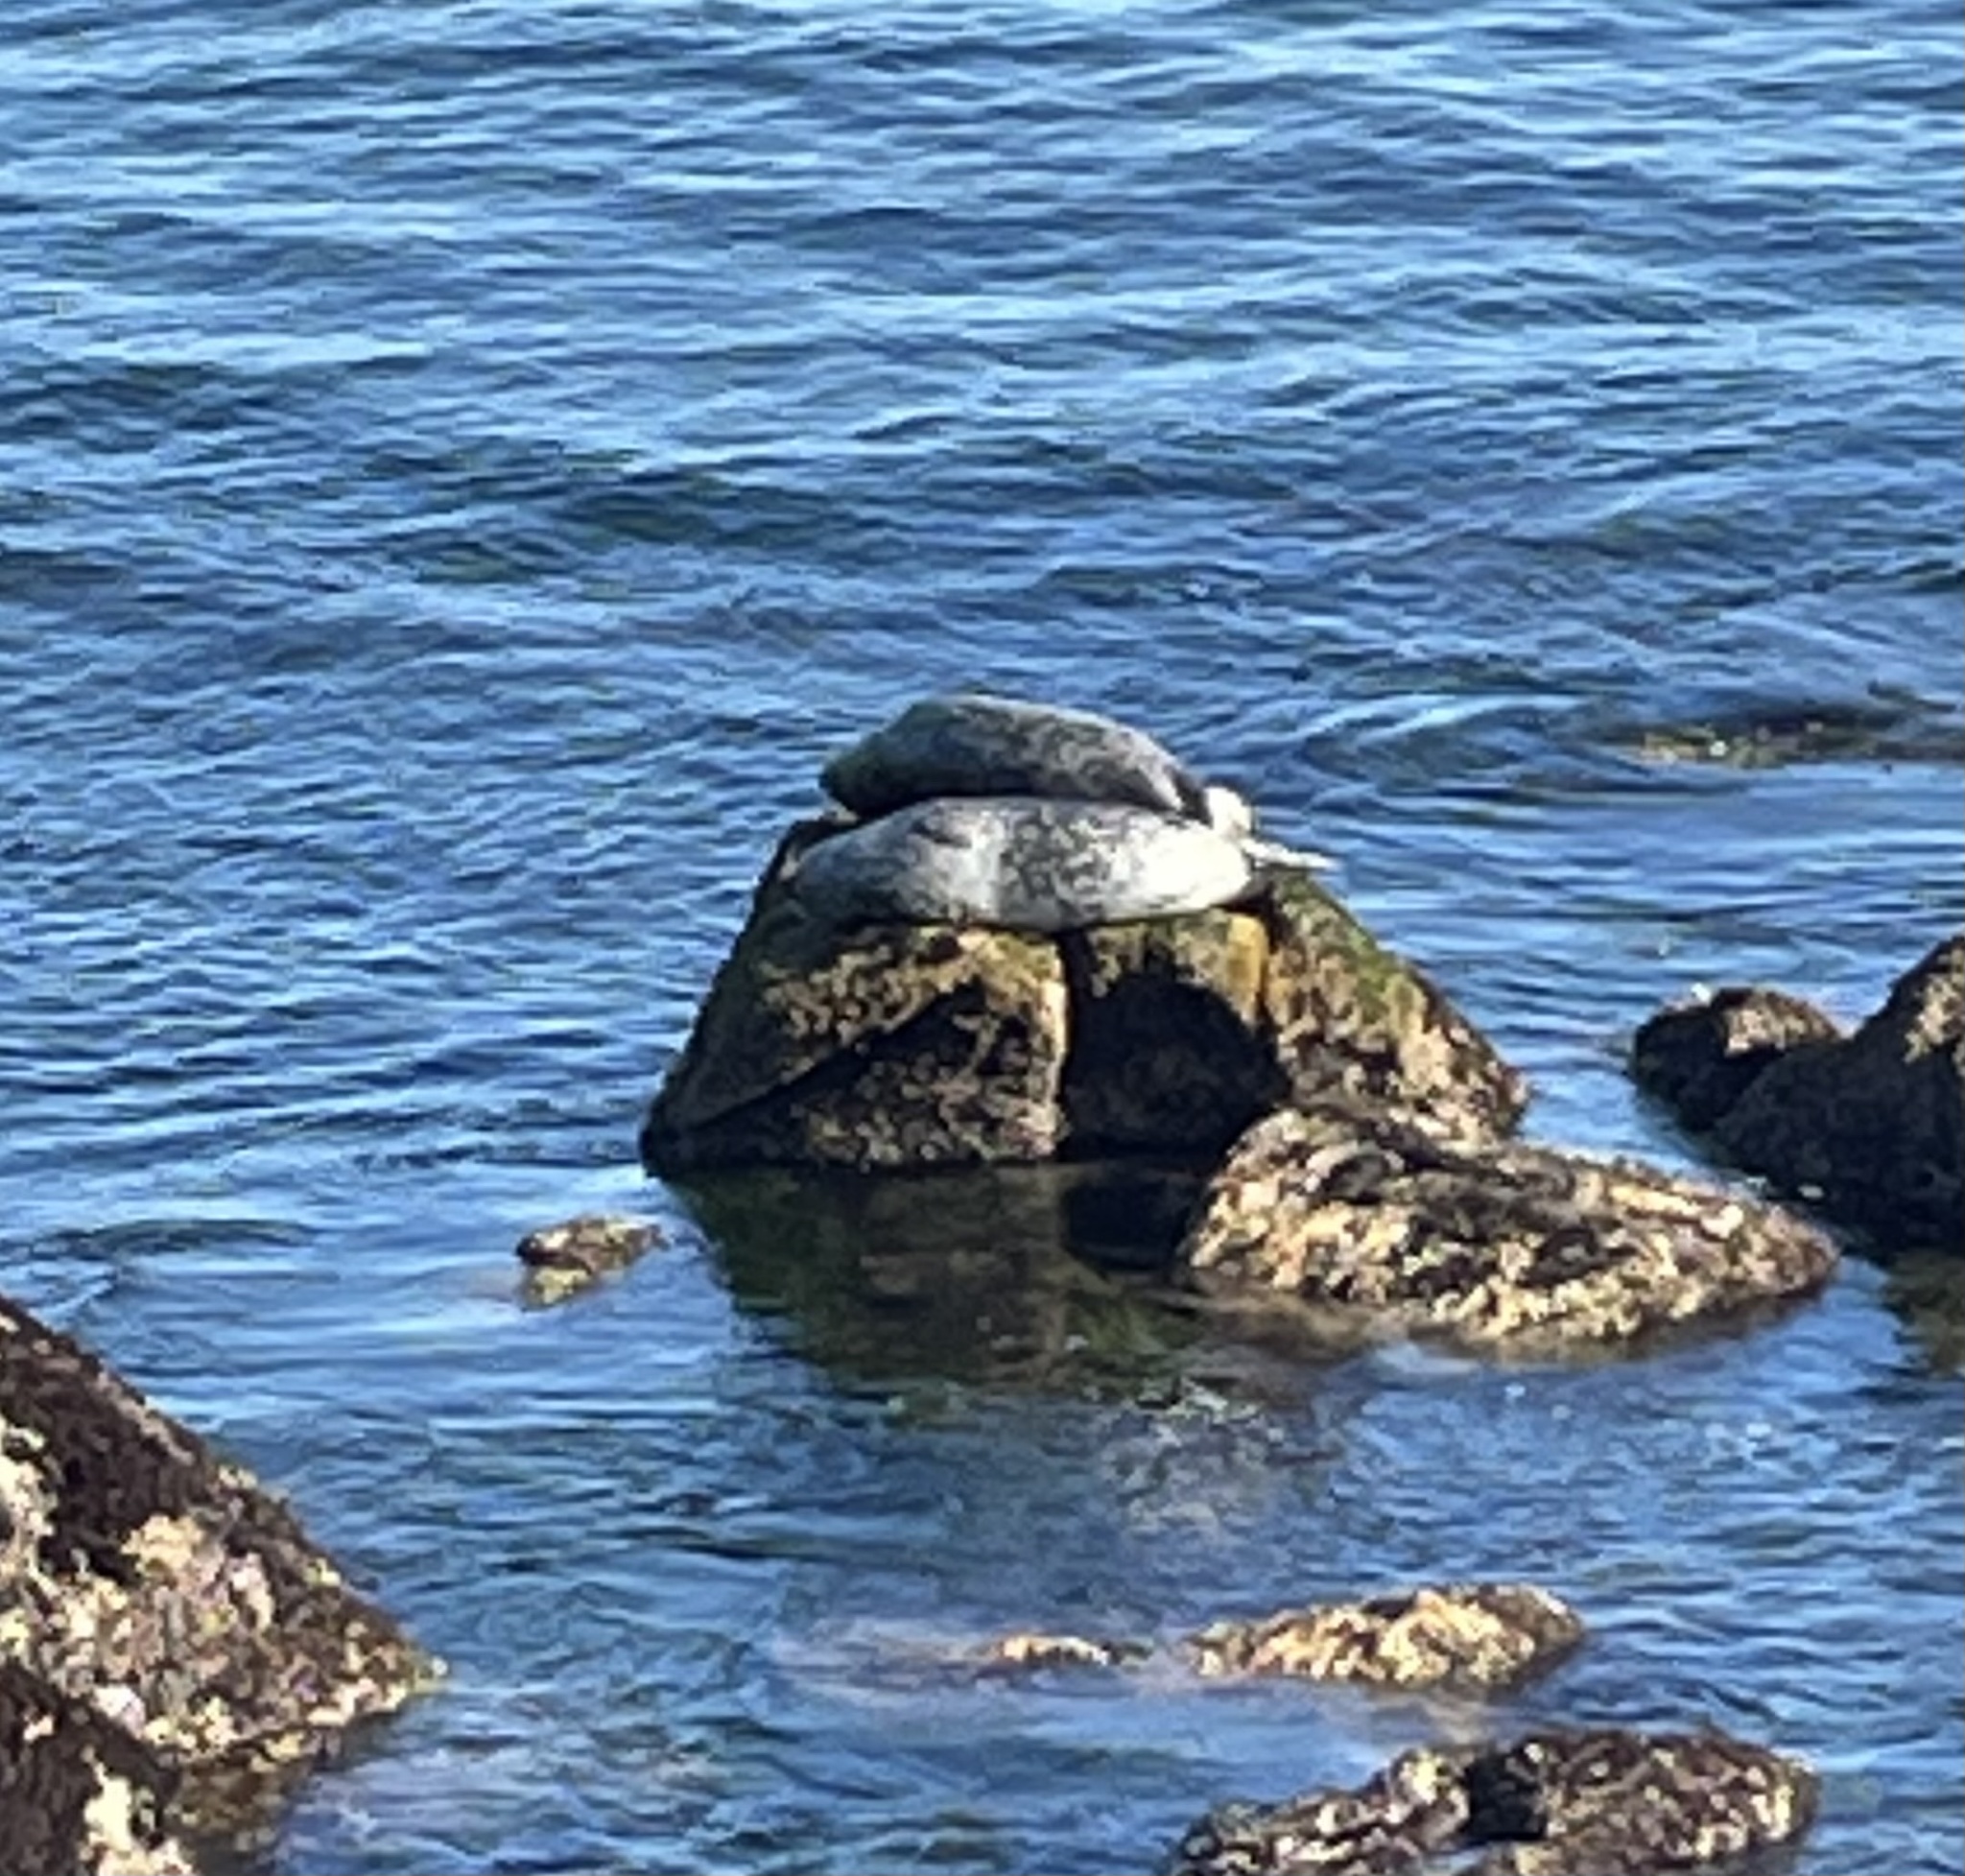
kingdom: Animalia
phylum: Chordata
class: Mammalia
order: Carnivora
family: Phocidae
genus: Phoca
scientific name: Phoca vitulina
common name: Harbor seal
